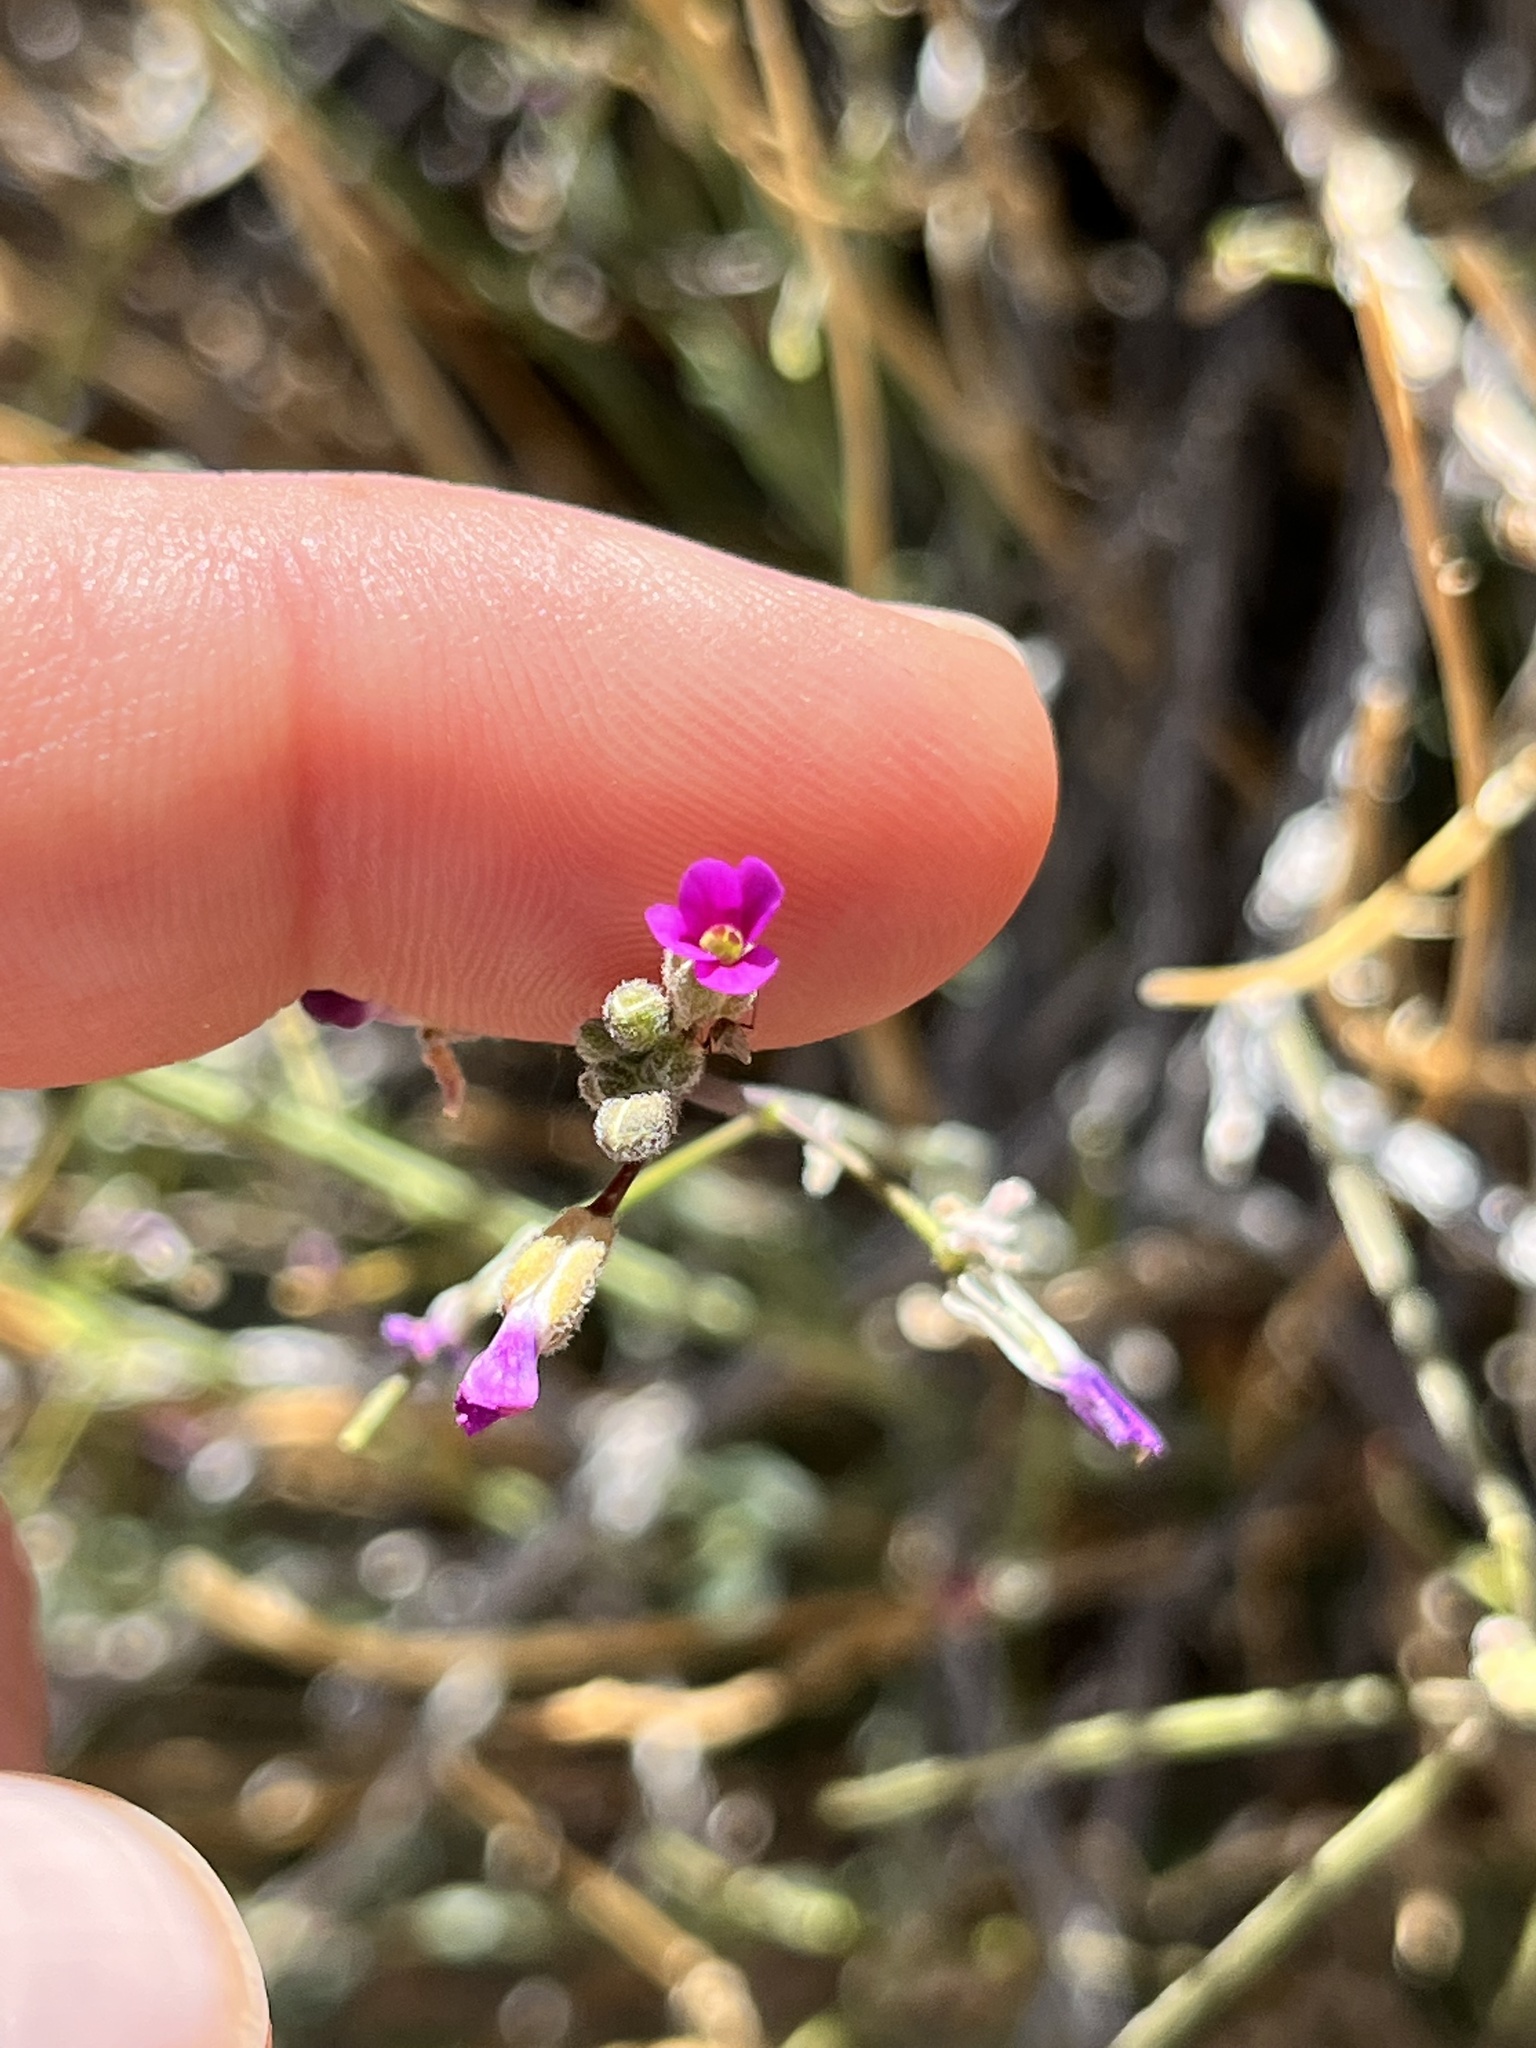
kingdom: Plantae
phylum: Tracheophyta
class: Magnoliopsida
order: Brassicales
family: Brassicaceae
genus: Boechera
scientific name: Boechera perennans
